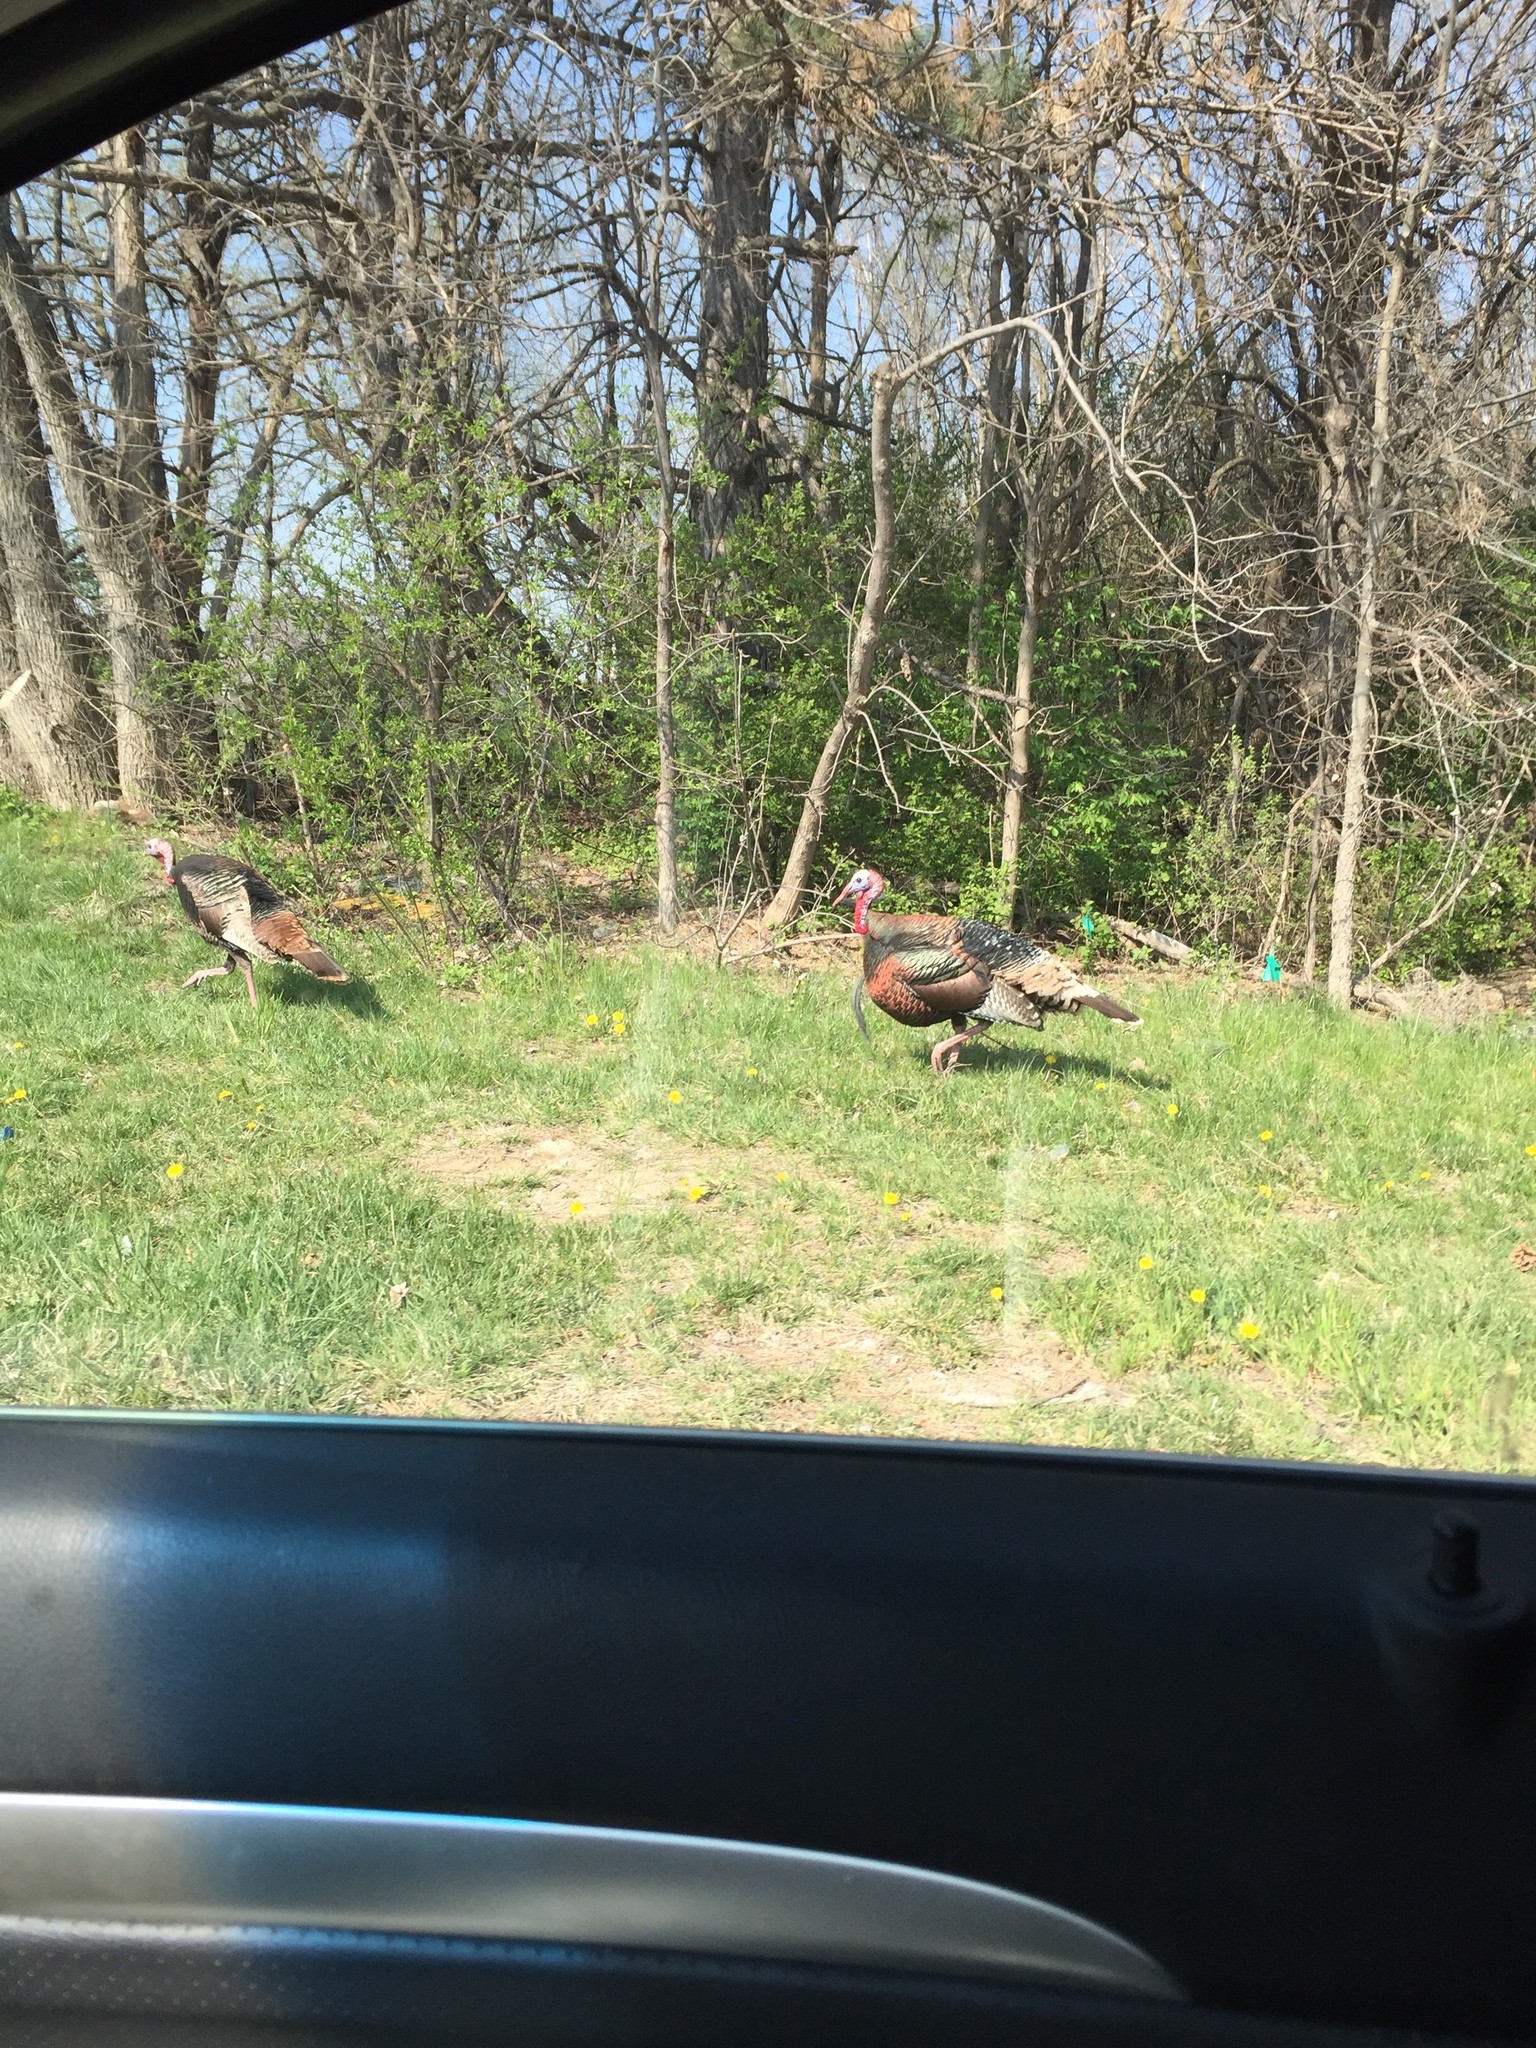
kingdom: Animalia
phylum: Chordata
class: Aves
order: Galliformes
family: Phasianidae
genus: Meleagris
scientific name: Meleagris gallopavo
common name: Wild turkey
